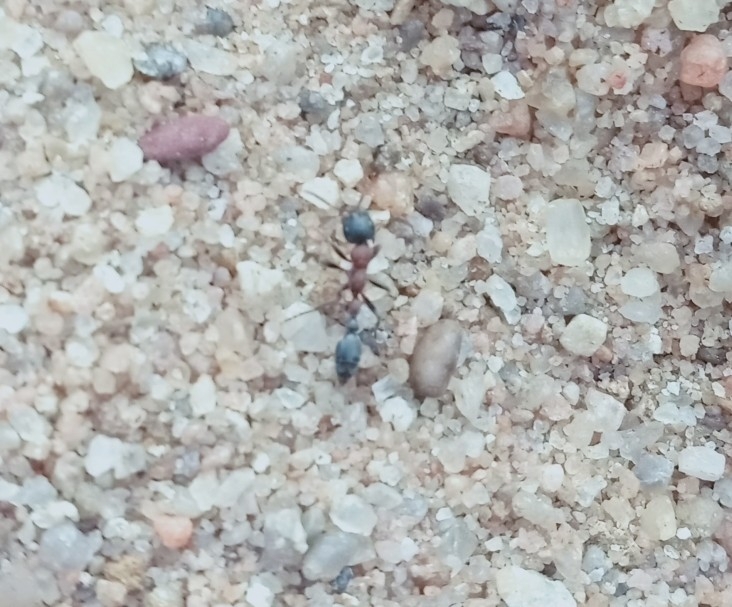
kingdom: Animalia
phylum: Arthropoda
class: Insecta
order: Hymenoptera
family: Formicidae
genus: Tetraponera
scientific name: Tetraponera rufonigra
